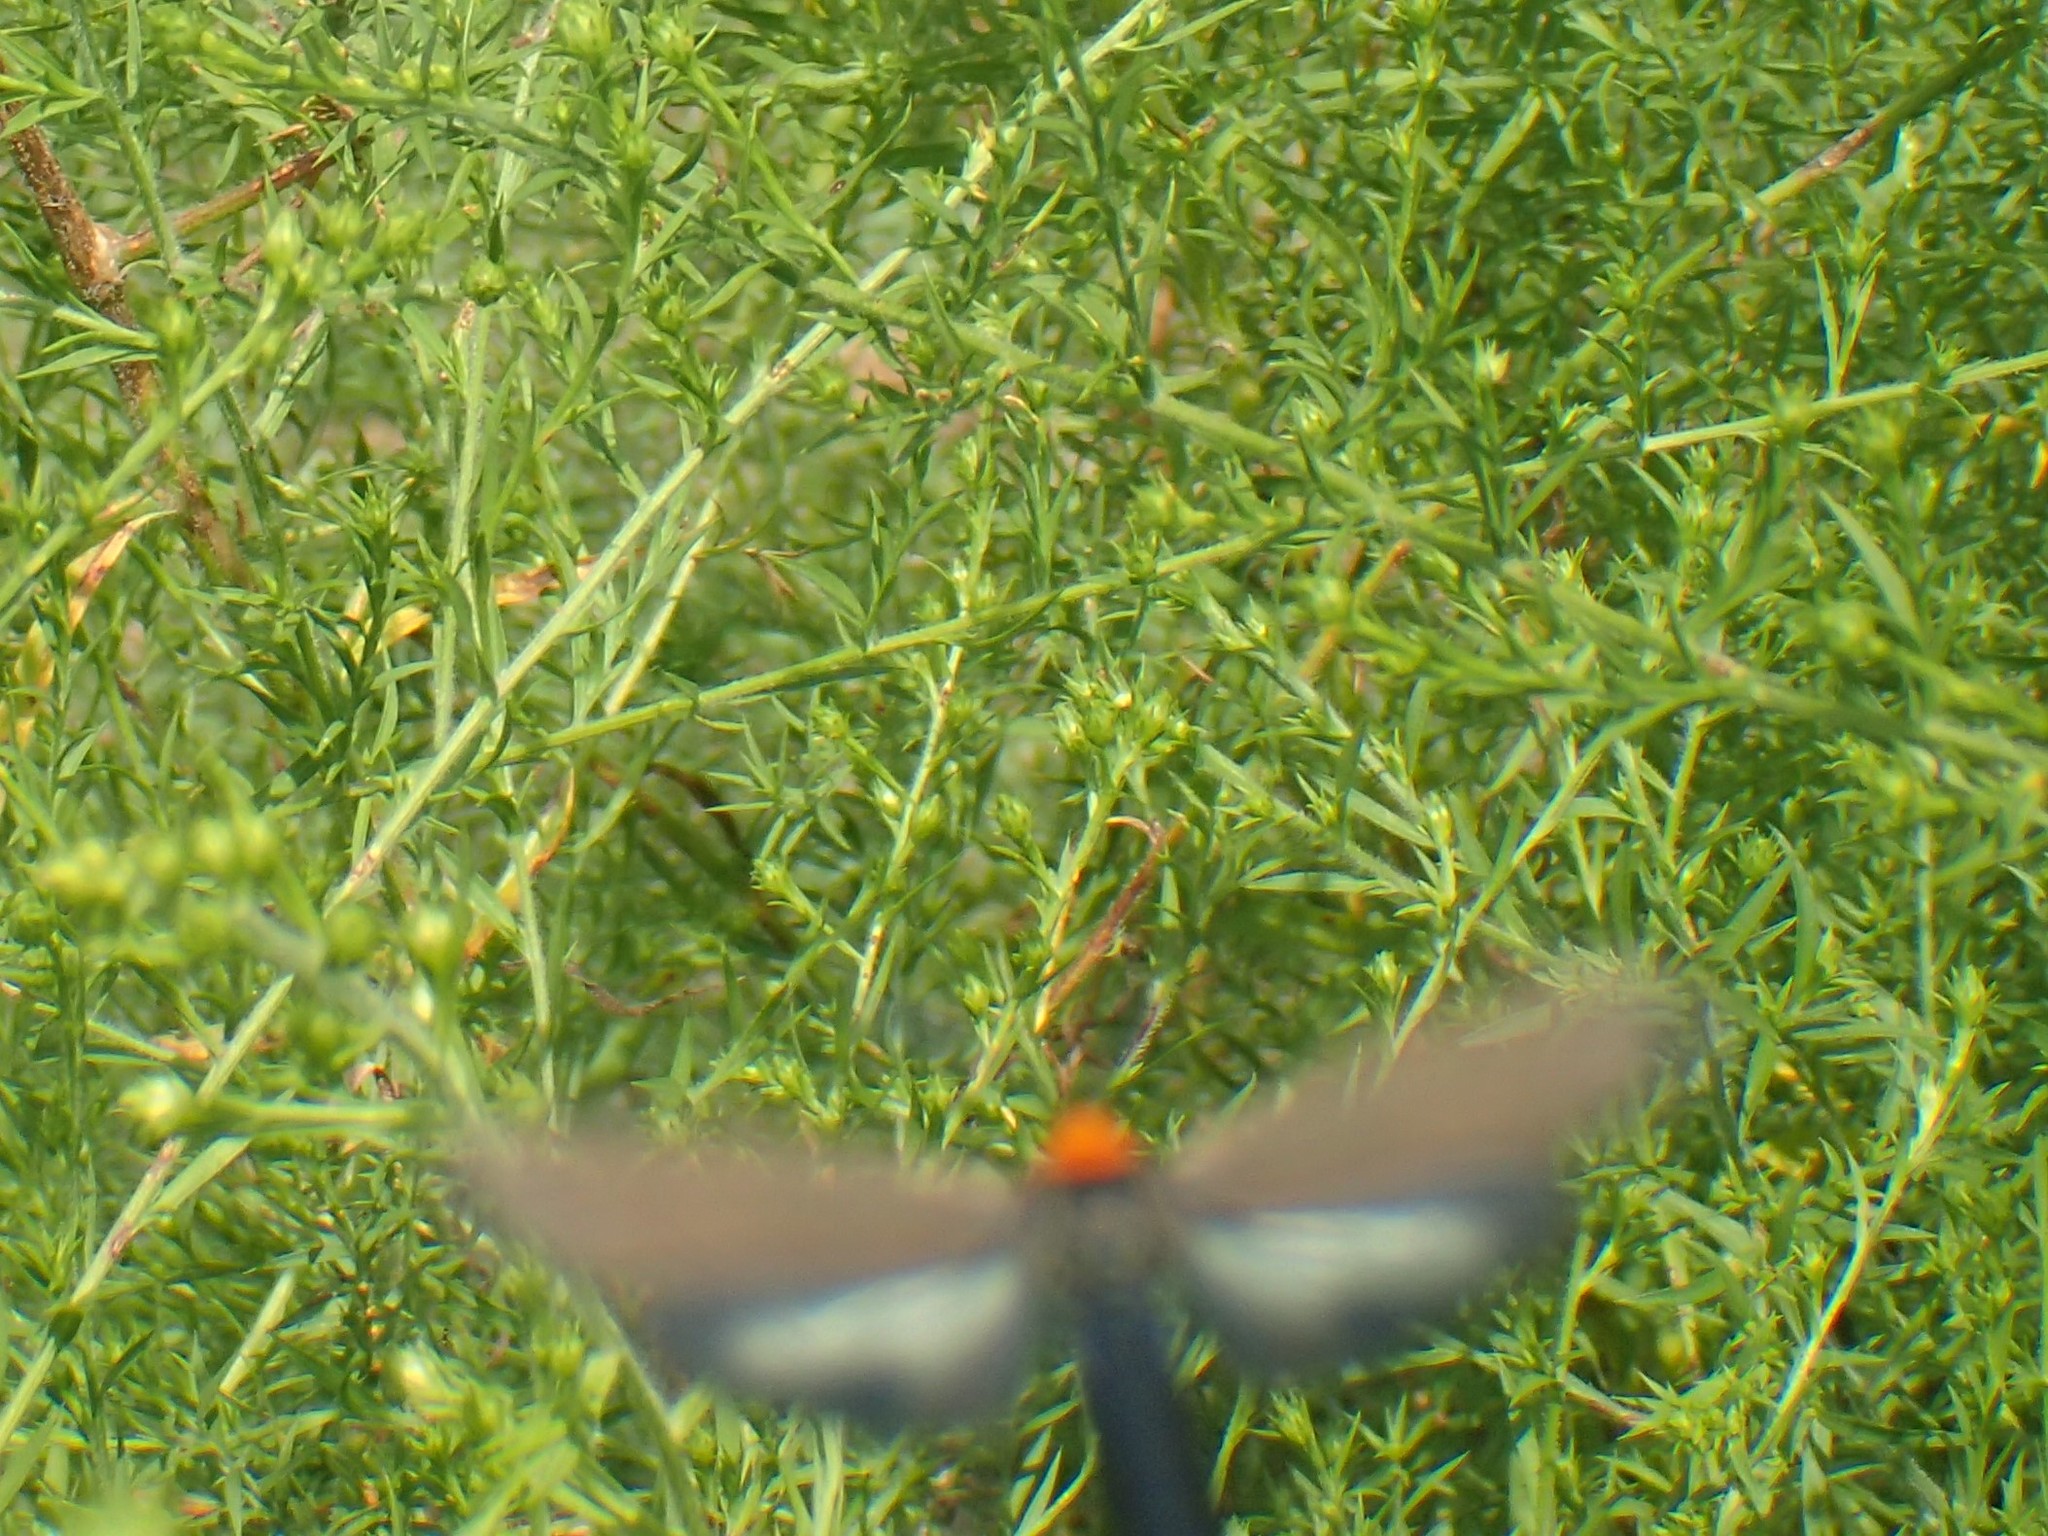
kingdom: Animalia
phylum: Arthropoda
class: Insecta
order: Lepidoptera
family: Erebidae
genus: Cisseps
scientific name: Cisseps fulvicollis
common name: Yellow-collared scape moth
